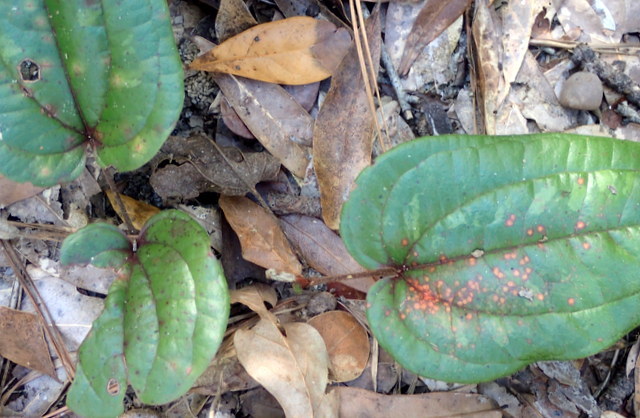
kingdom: Plantae
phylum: Tracheophyta
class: Liliopsida
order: Liliales
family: Smilacaceae
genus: Smilax
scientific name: Smilax pumila
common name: Sarsaparilla-vine
